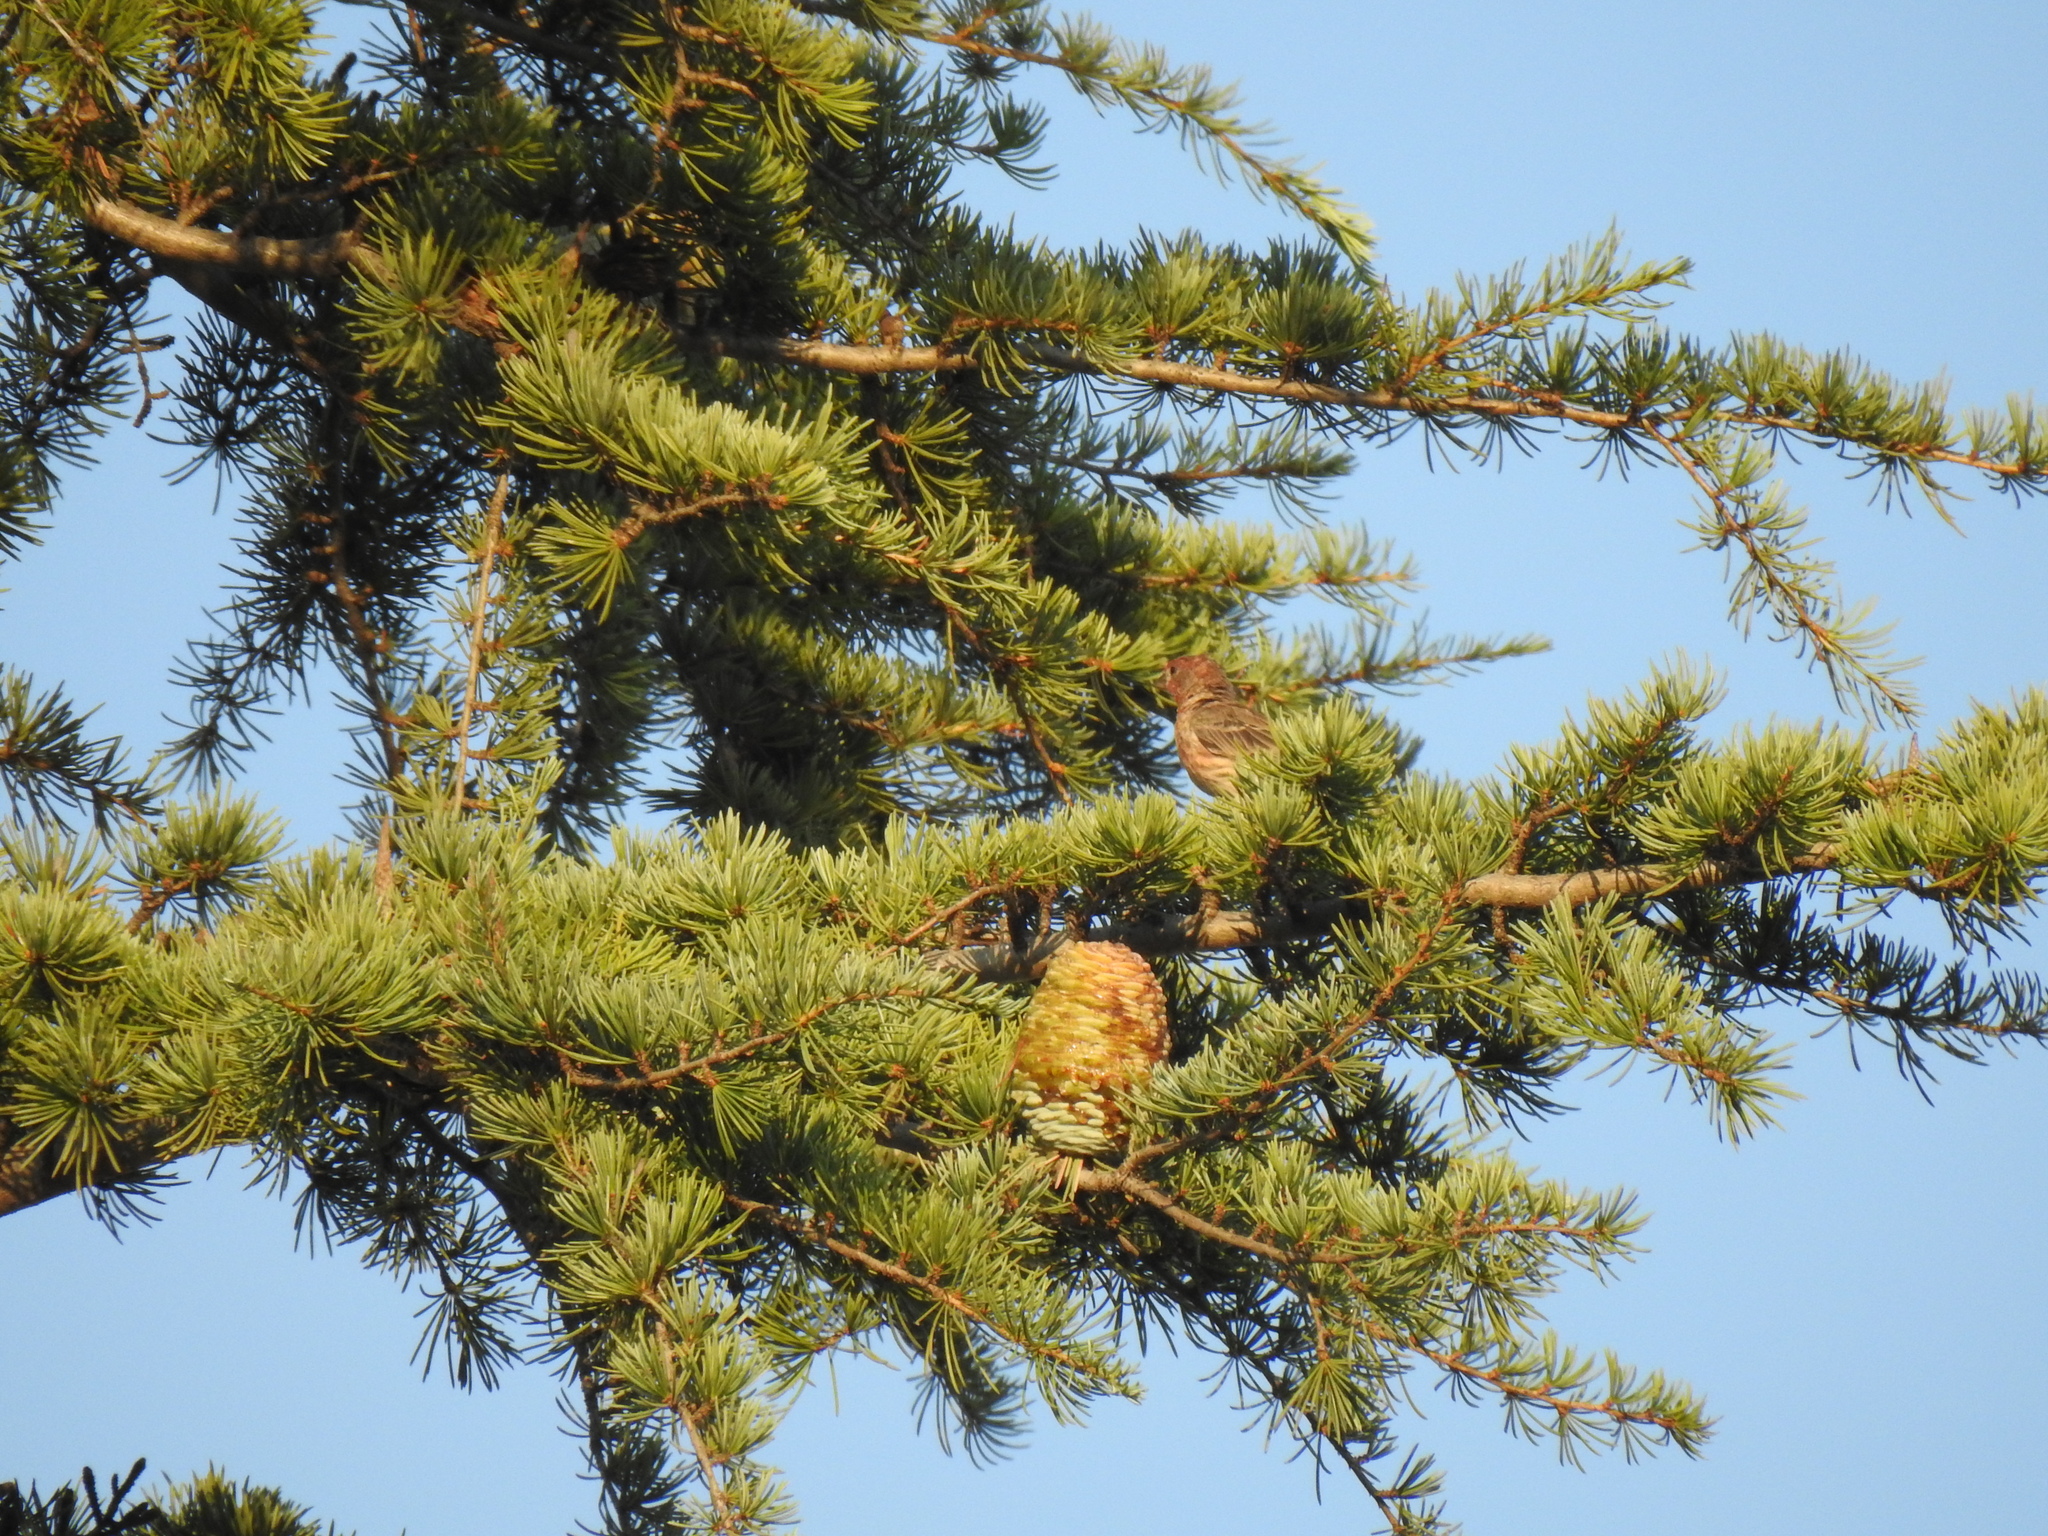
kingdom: Animalia
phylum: Chordata
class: Aves
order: Passeriformes
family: Fringillidae
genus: Haemorhous
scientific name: Haemorhous mexicanus
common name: House finch
